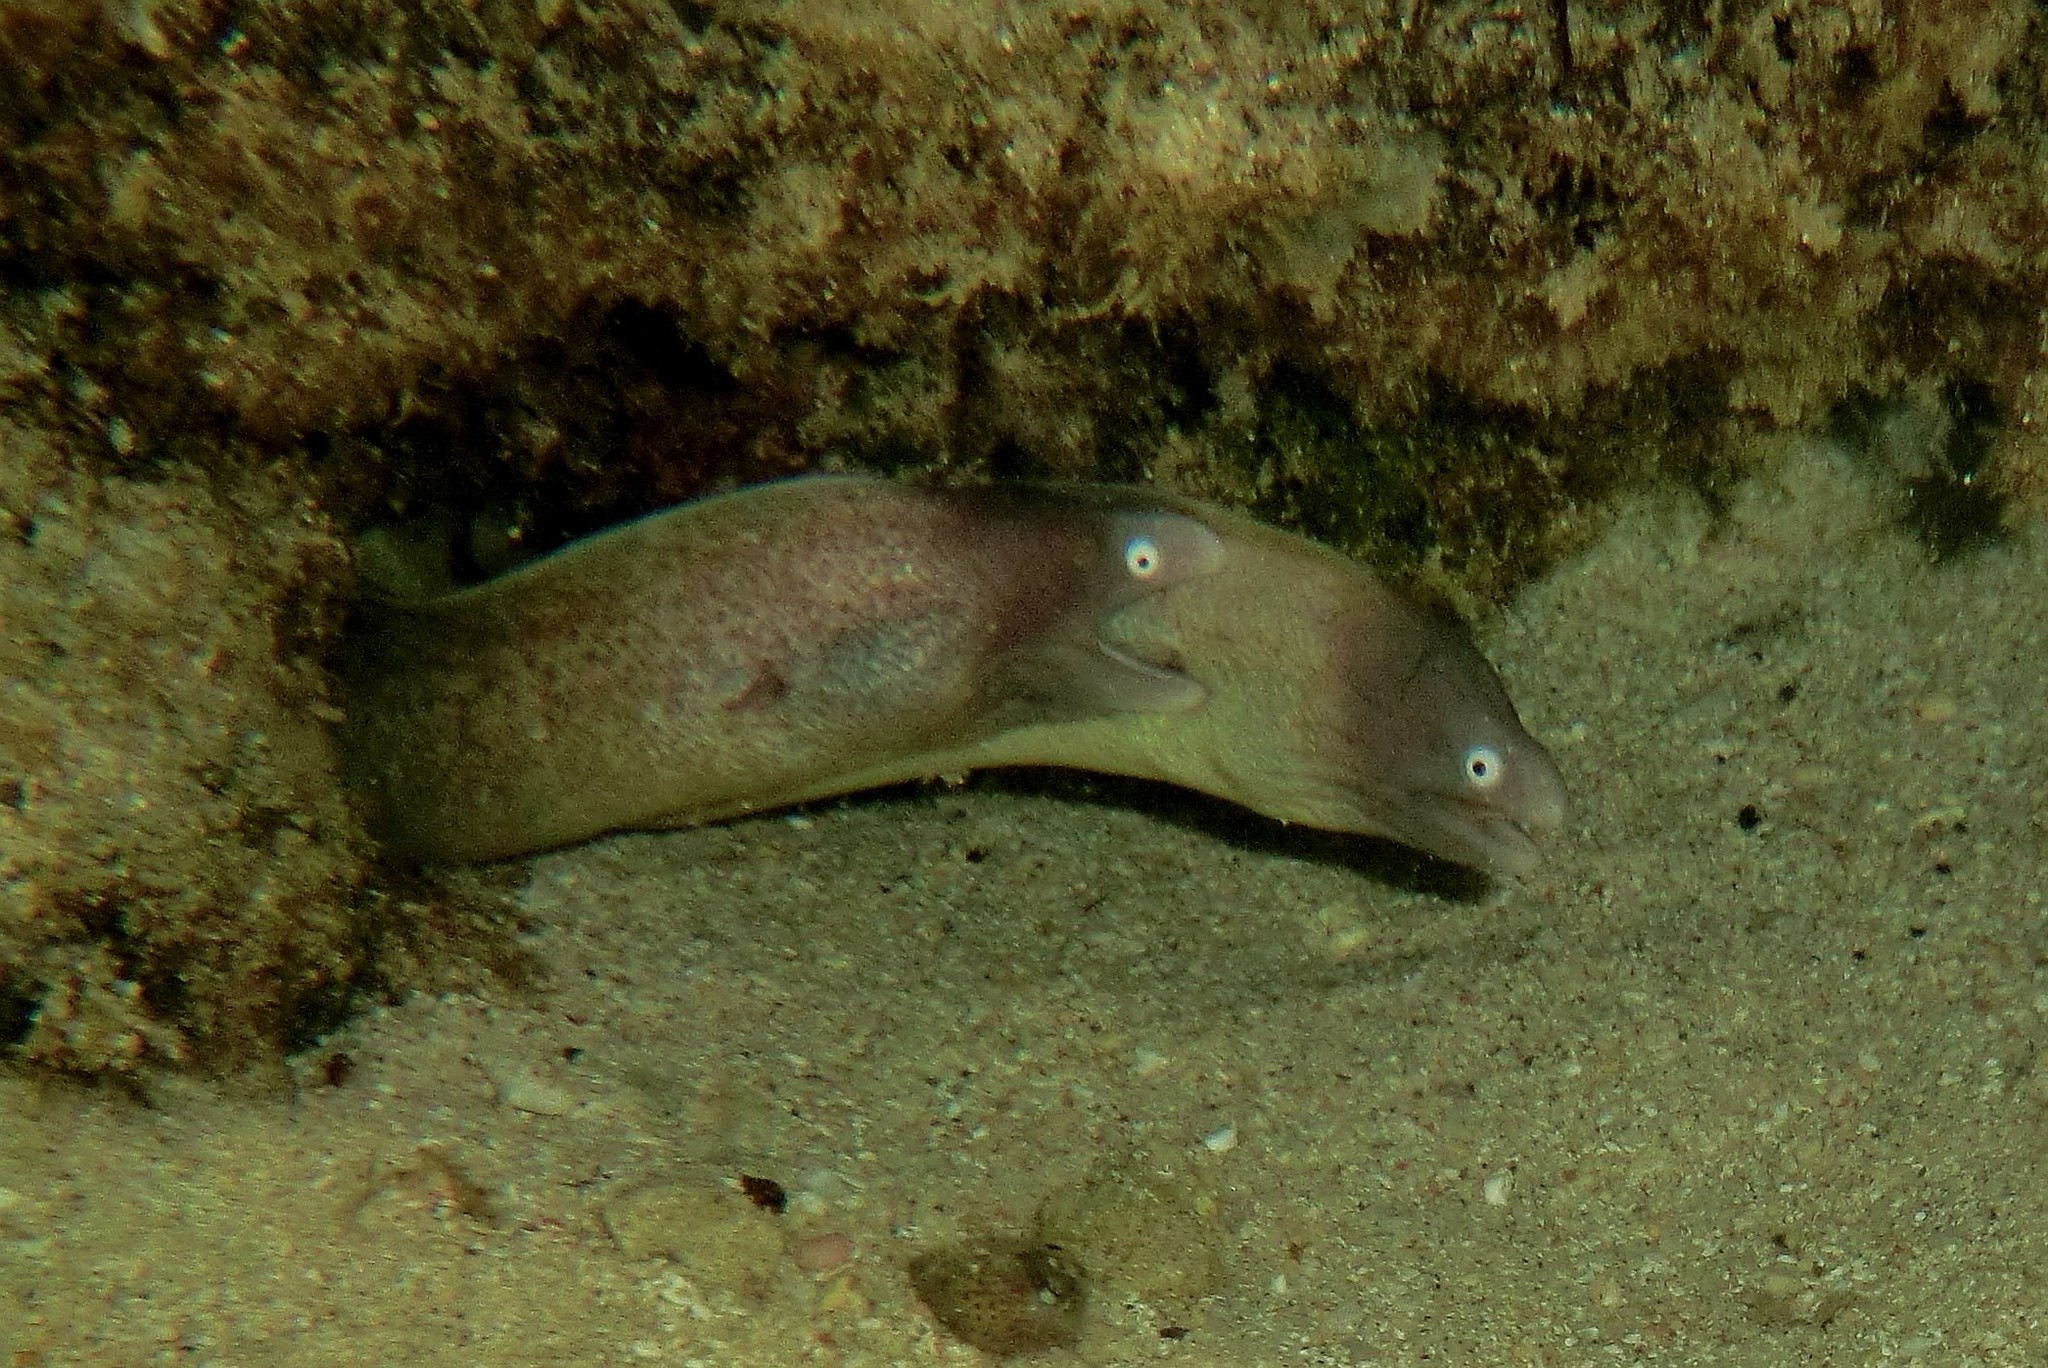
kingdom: Animalia
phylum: Chordata
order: Anguilliformes
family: Muraenidae
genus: Gymnothorax
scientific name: Gymnothorax thyrsoideus
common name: Greyface moray
